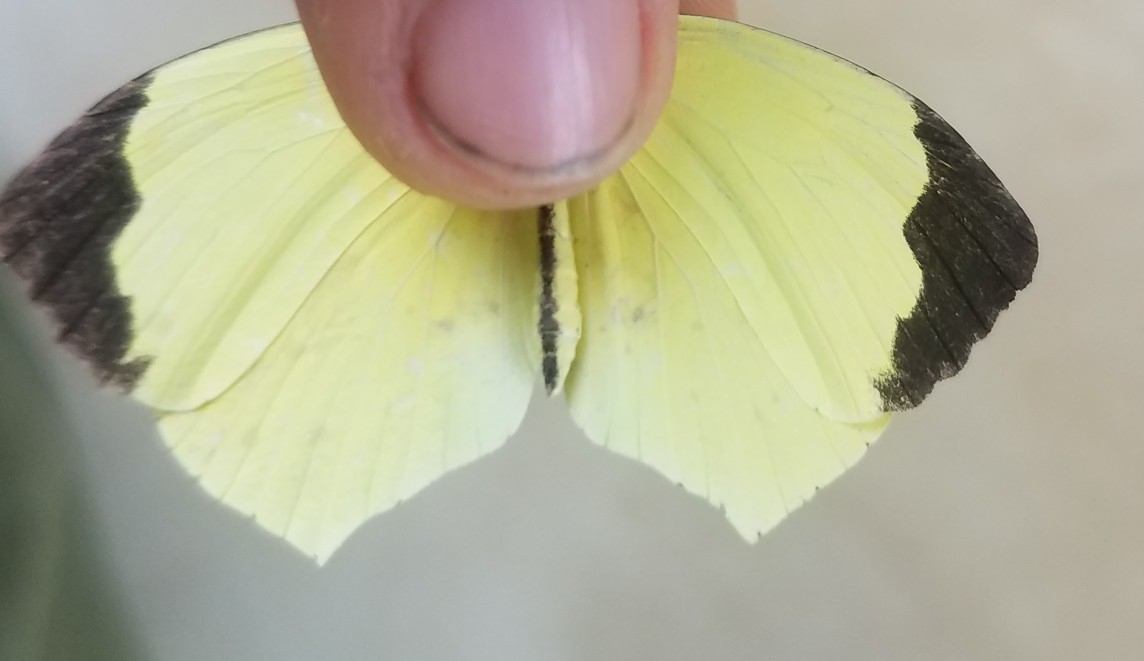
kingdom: Animalia
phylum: Arthropoda
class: Insecta
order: Lepidoptera
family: Pieridae
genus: Abaeis
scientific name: Abaeis boisduvaliana
